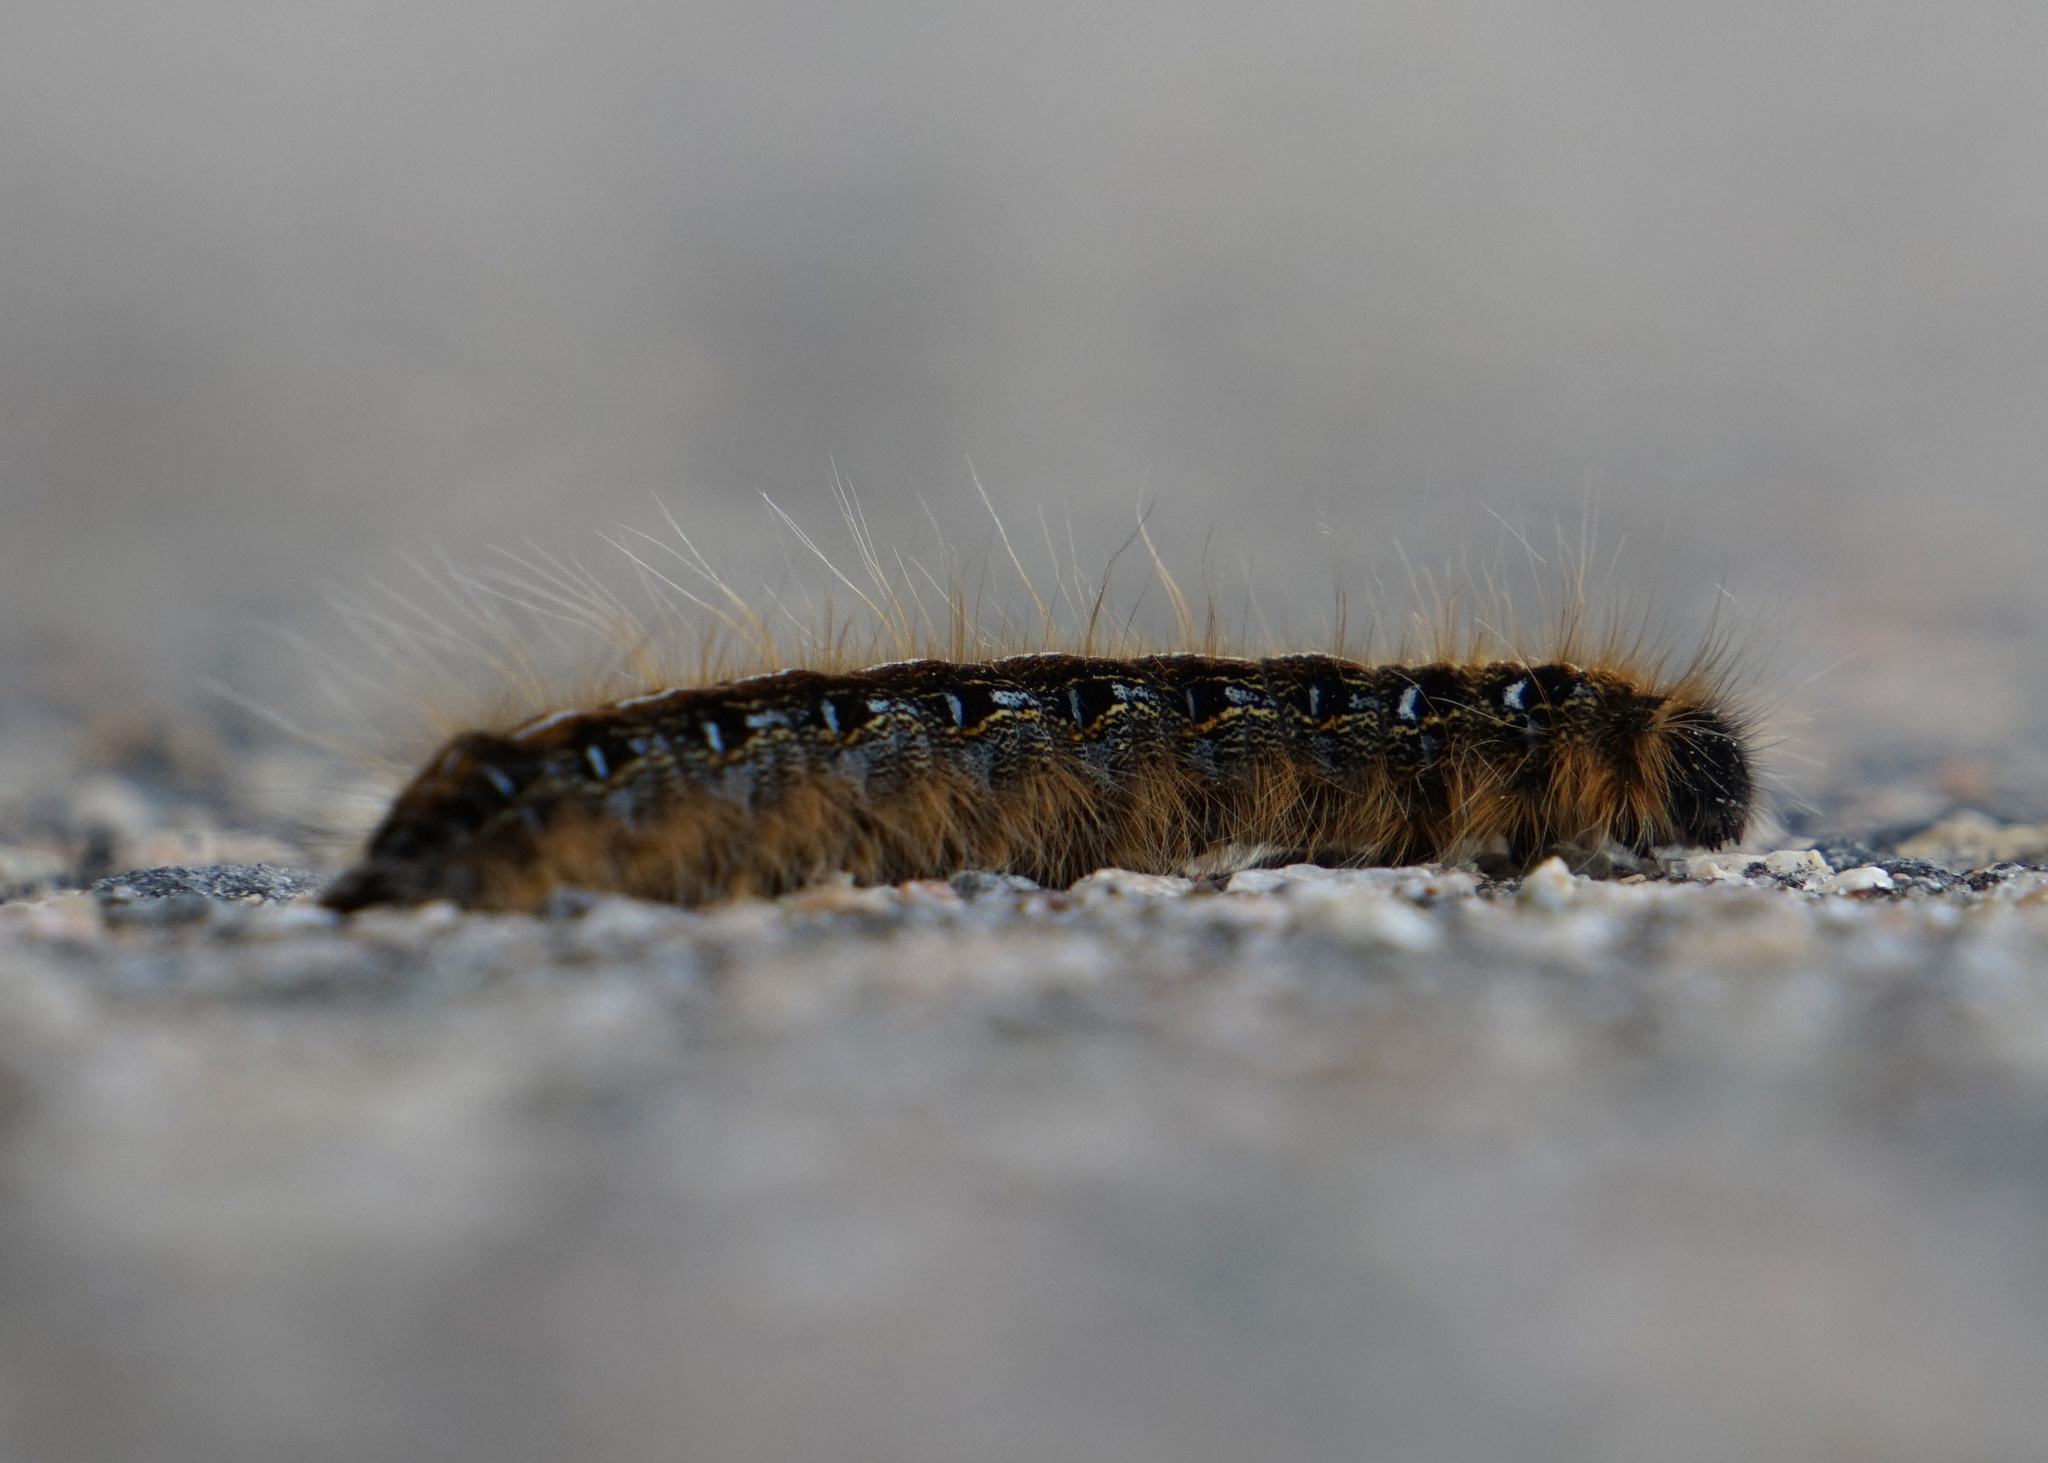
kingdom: Animalia
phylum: Arthropoda
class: Insecta
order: Lepidoptera
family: Lasiocampidae
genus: Malacosoma
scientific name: Malacosoma americana
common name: Eastern tent caterpillar moth
